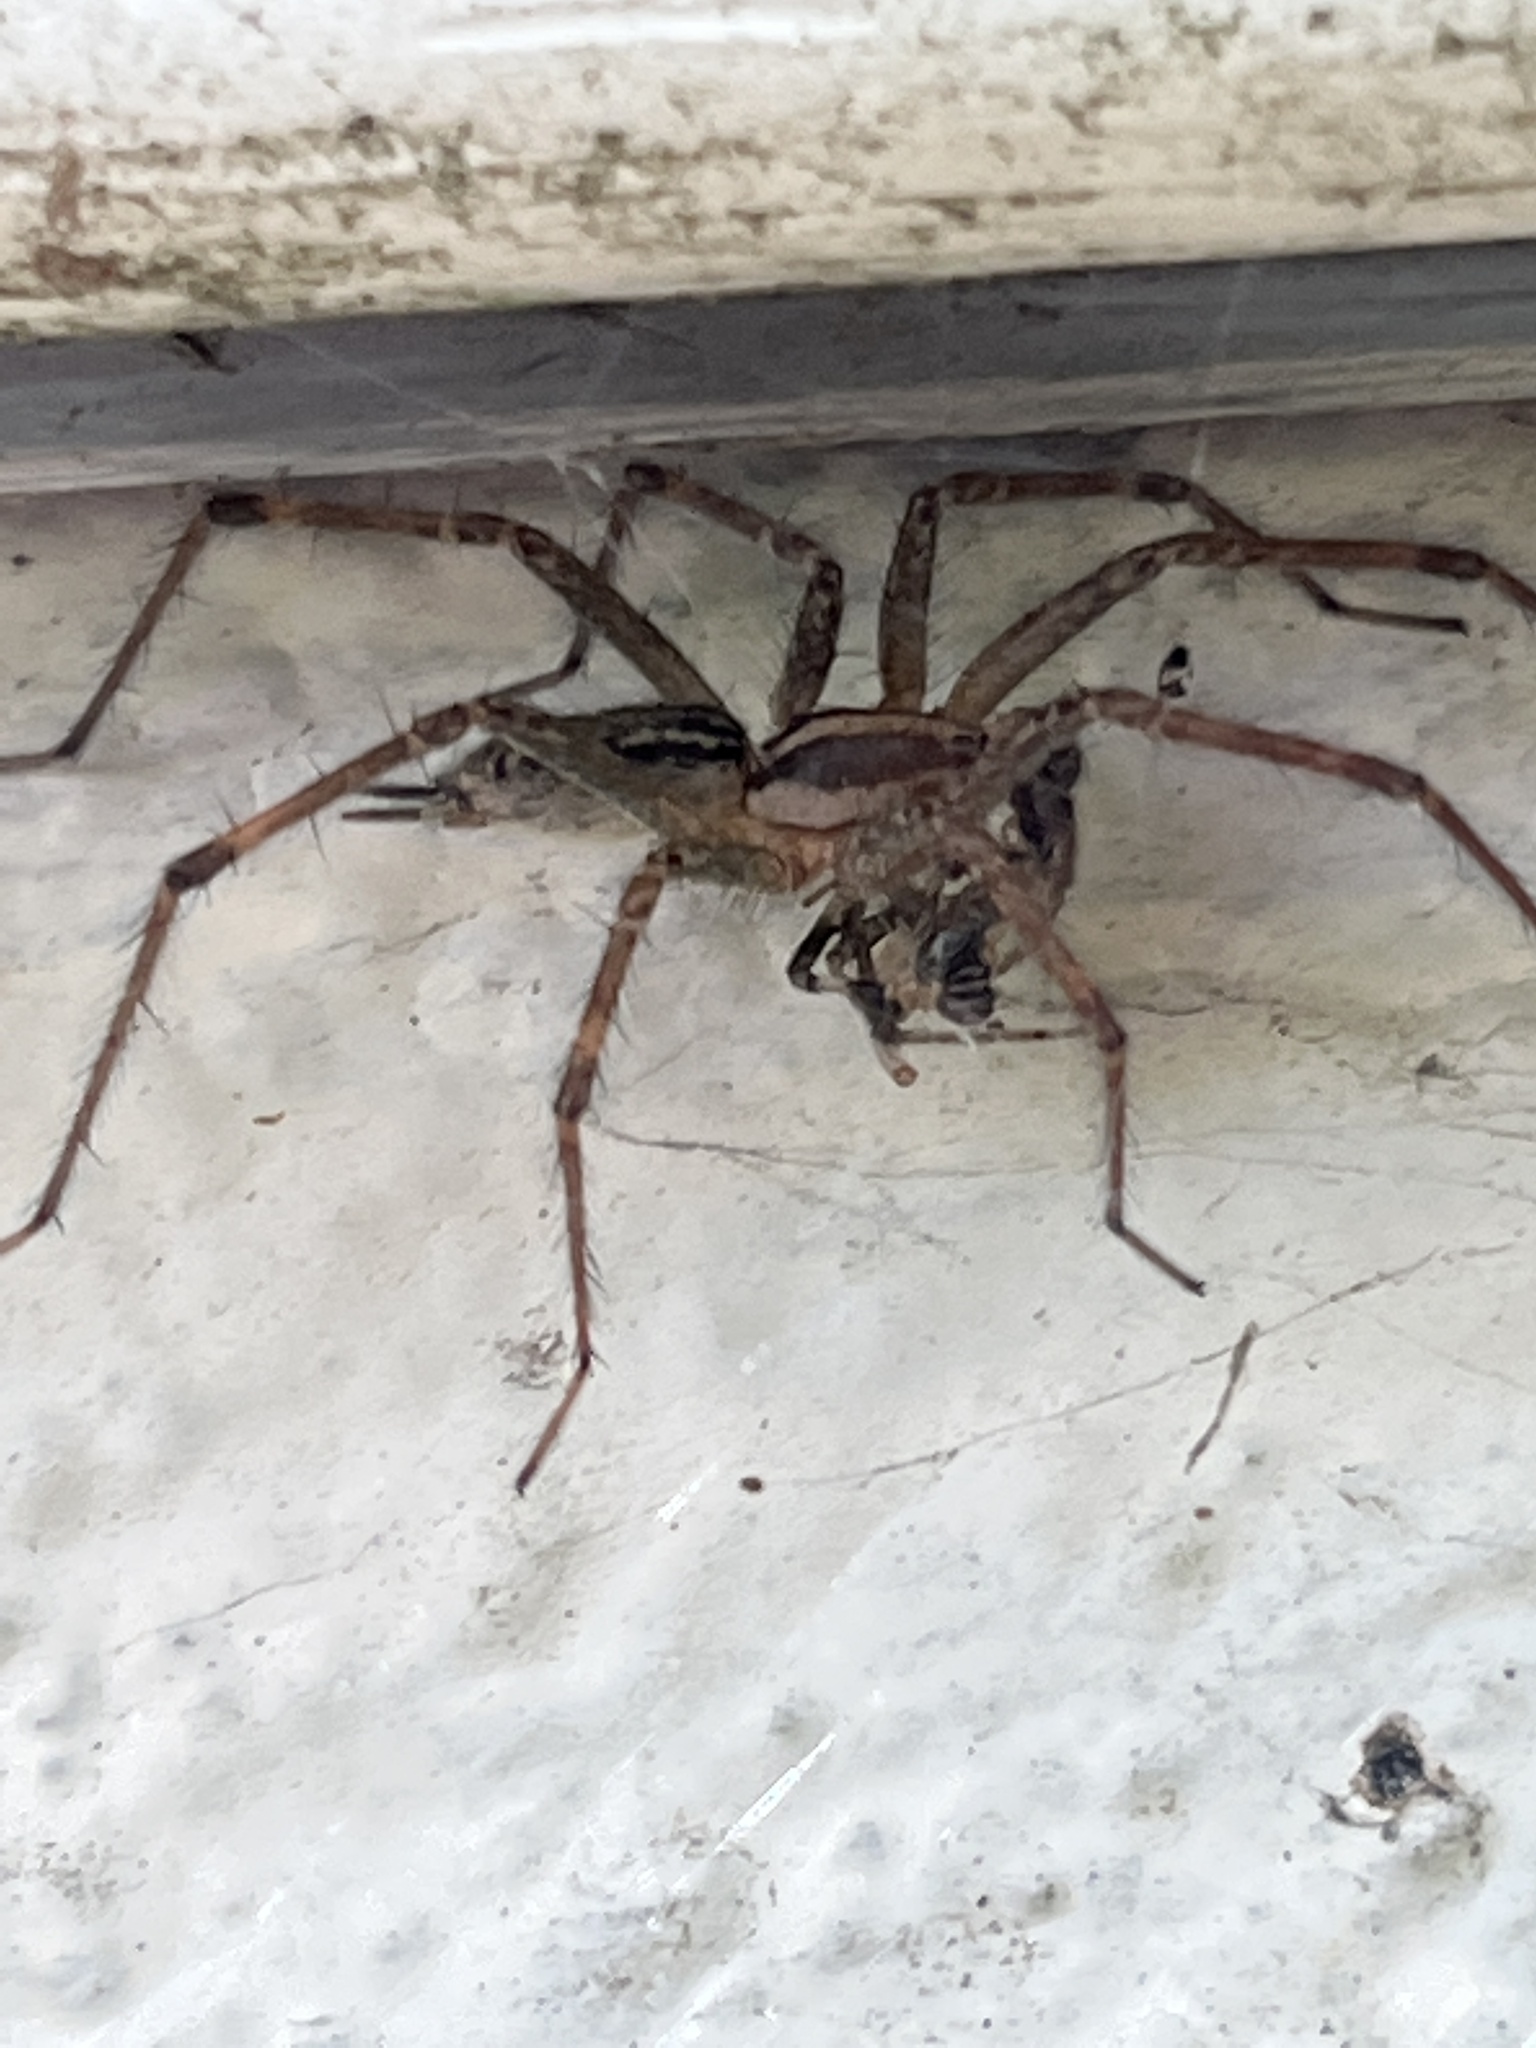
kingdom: Animalia
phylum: Arthropoda
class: Arachnida
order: Araneae
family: Agelenidae
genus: Agelenopsis
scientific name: Agelenopsis
